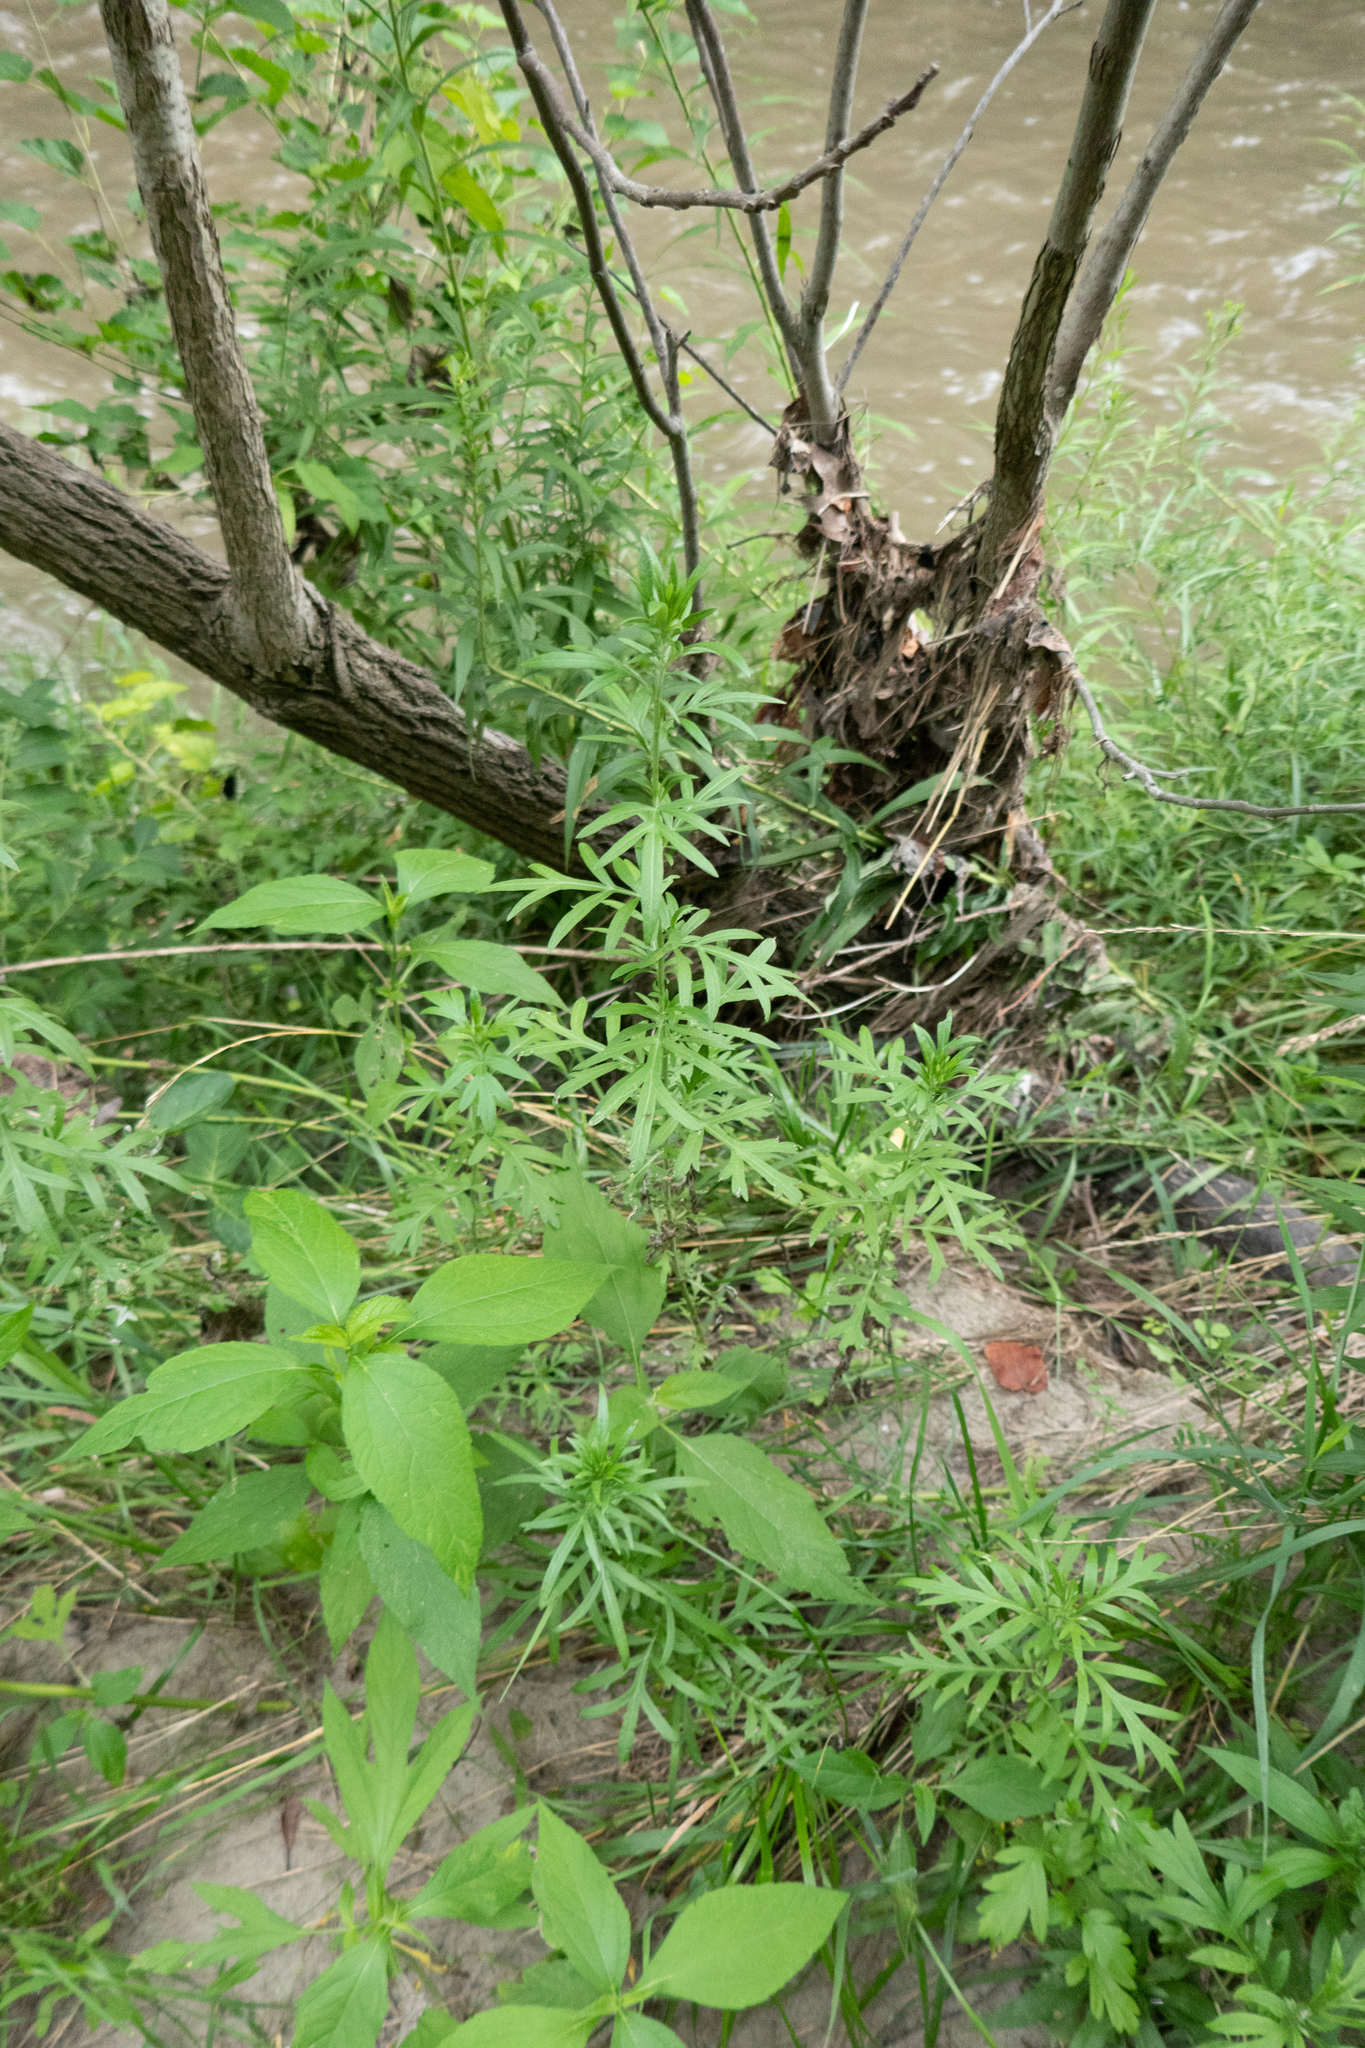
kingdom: Plantae
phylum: Tracheophyta
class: Magnoliopsida
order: Asterales
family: Asteraceae
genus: Artemisia
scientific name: Artemisia vulgaris
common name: Mugwort
